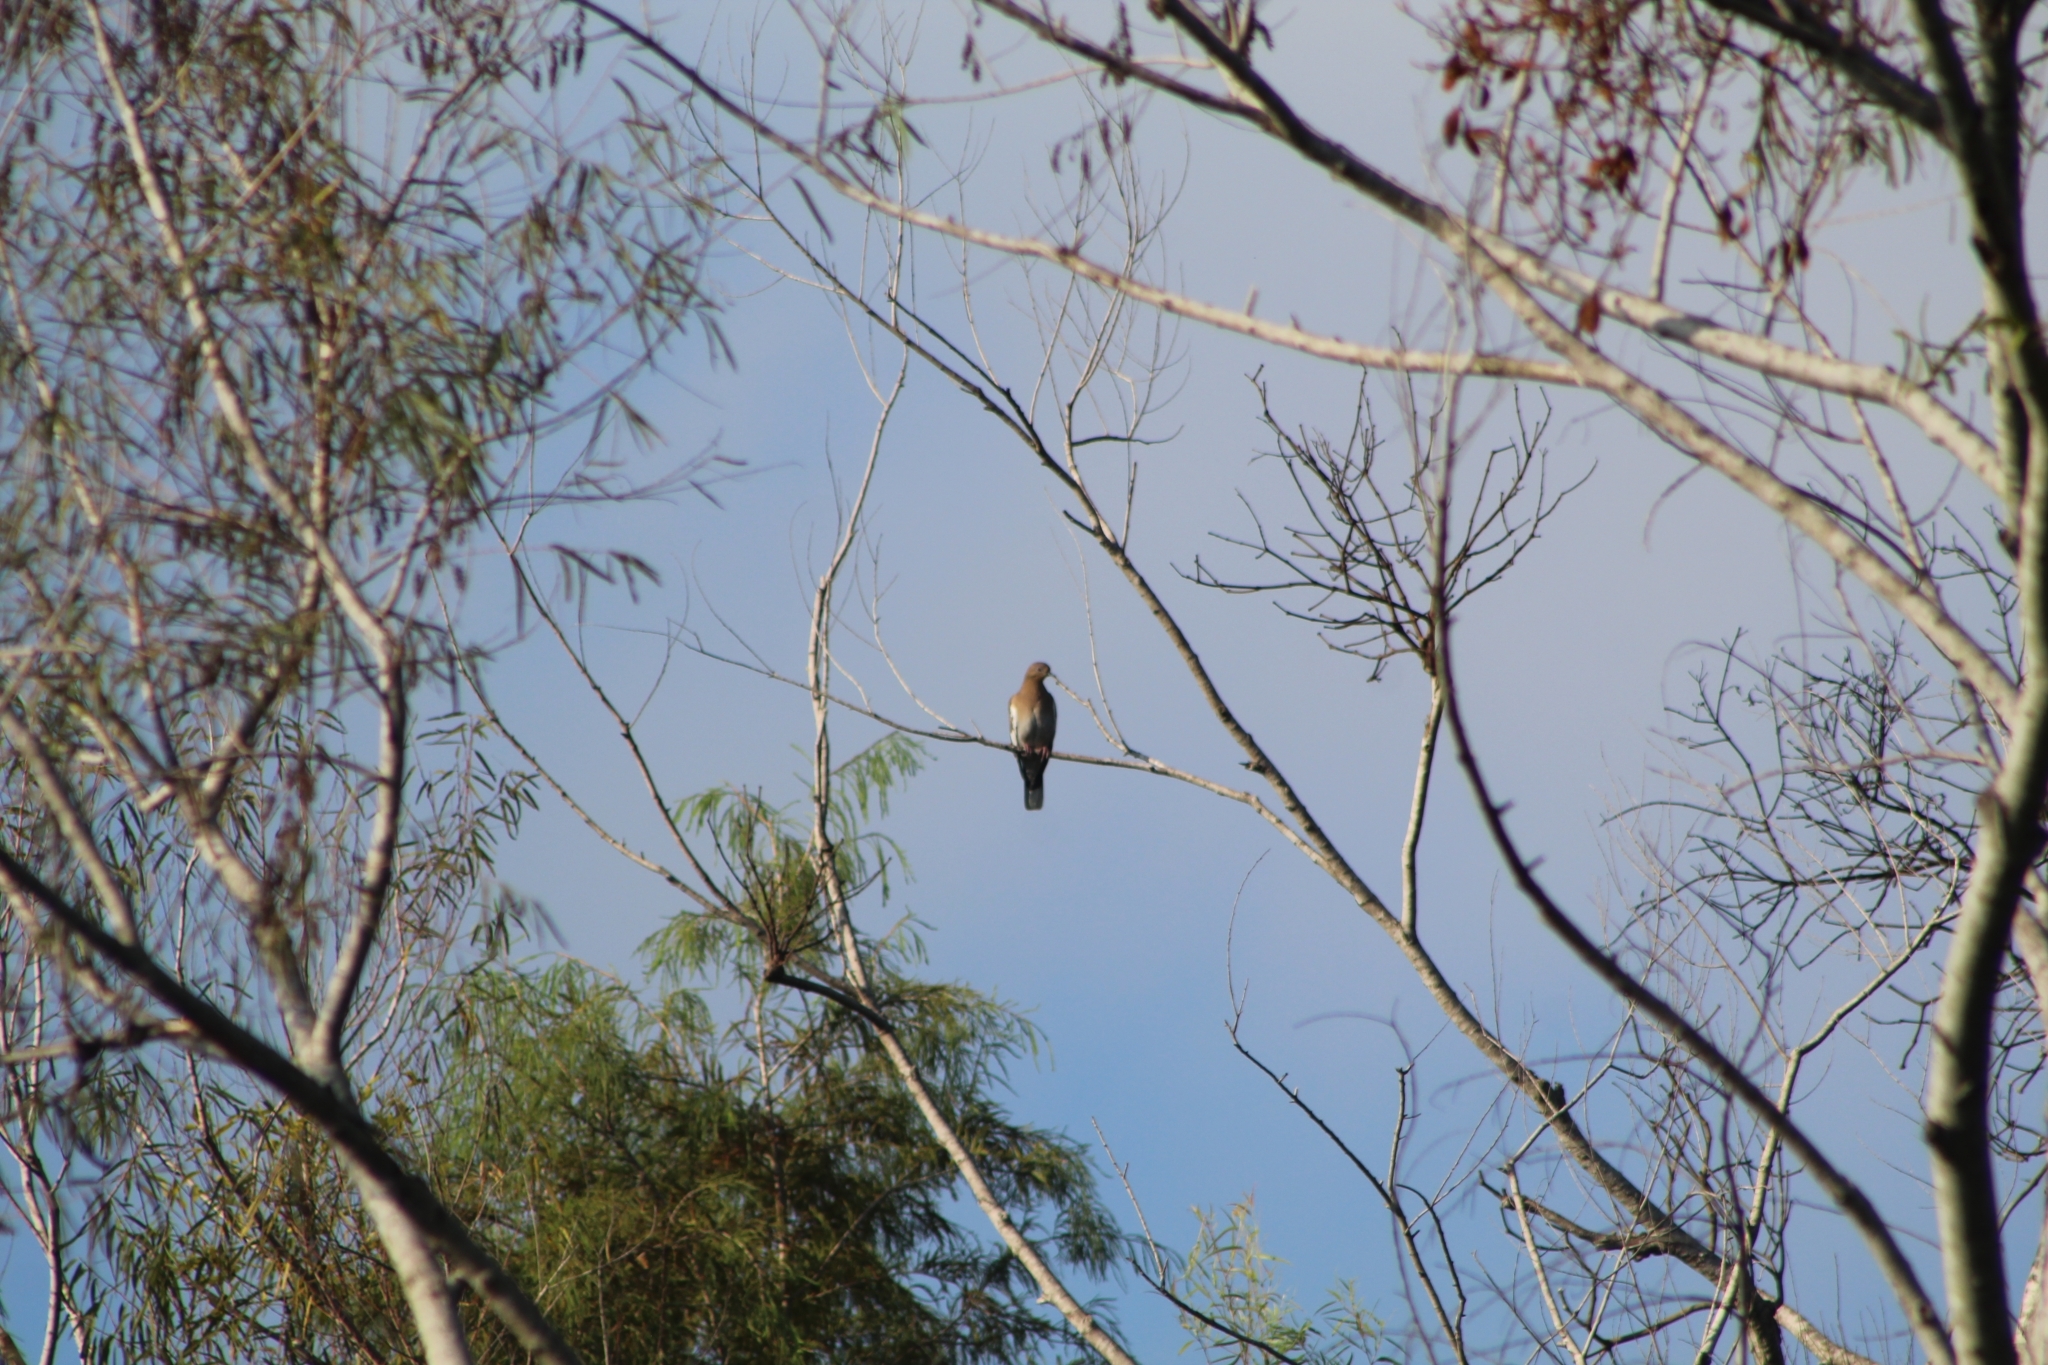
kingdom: Animalia
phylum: Chordata
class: Aves
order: Columbiformes
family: Columbidae
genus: Zenaida
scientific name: Zenaida asiatica
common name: White-winged dove
